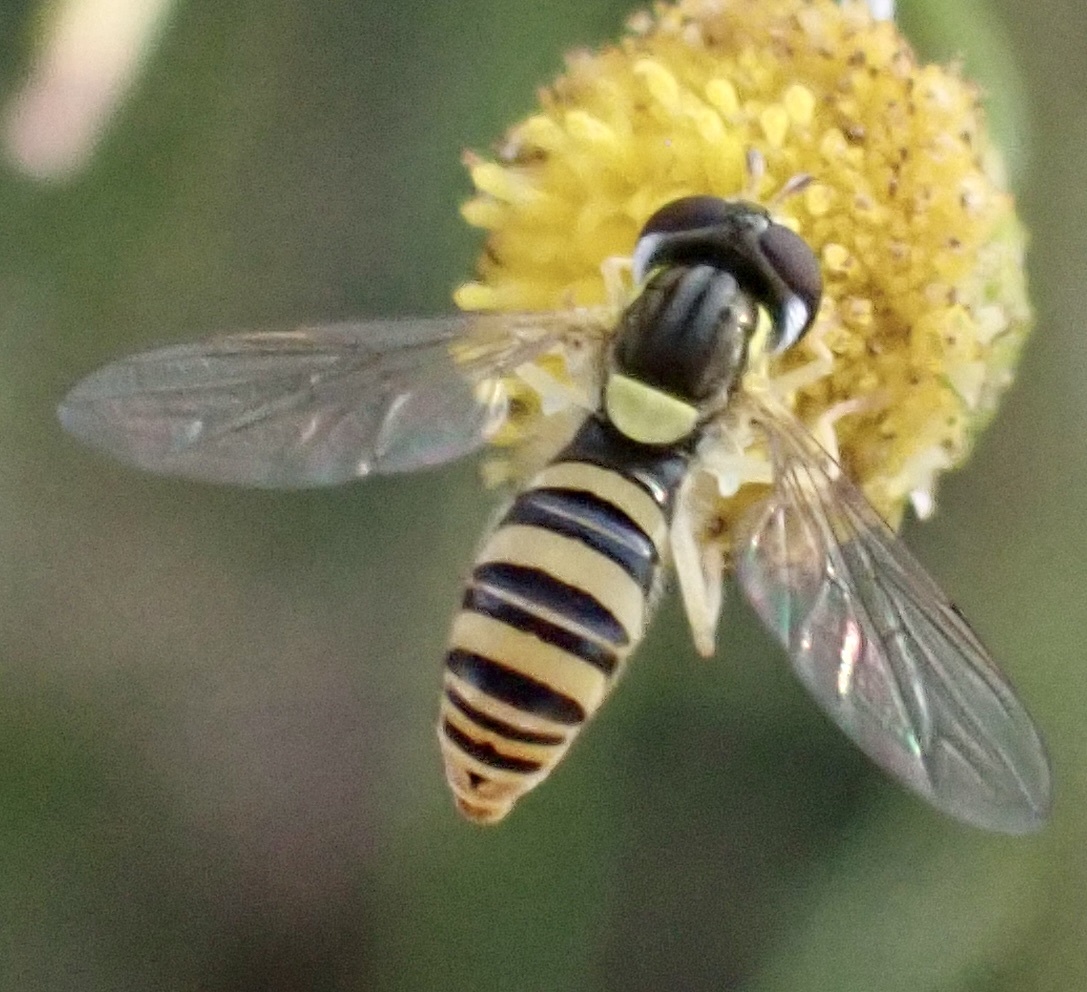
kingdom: Animalia
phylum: Arthropoda
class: Insecta
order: Diptera
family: Syrphidae
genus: Sphaerophoria
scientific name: Sphaerophoria contigua
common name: Tufted globetail
